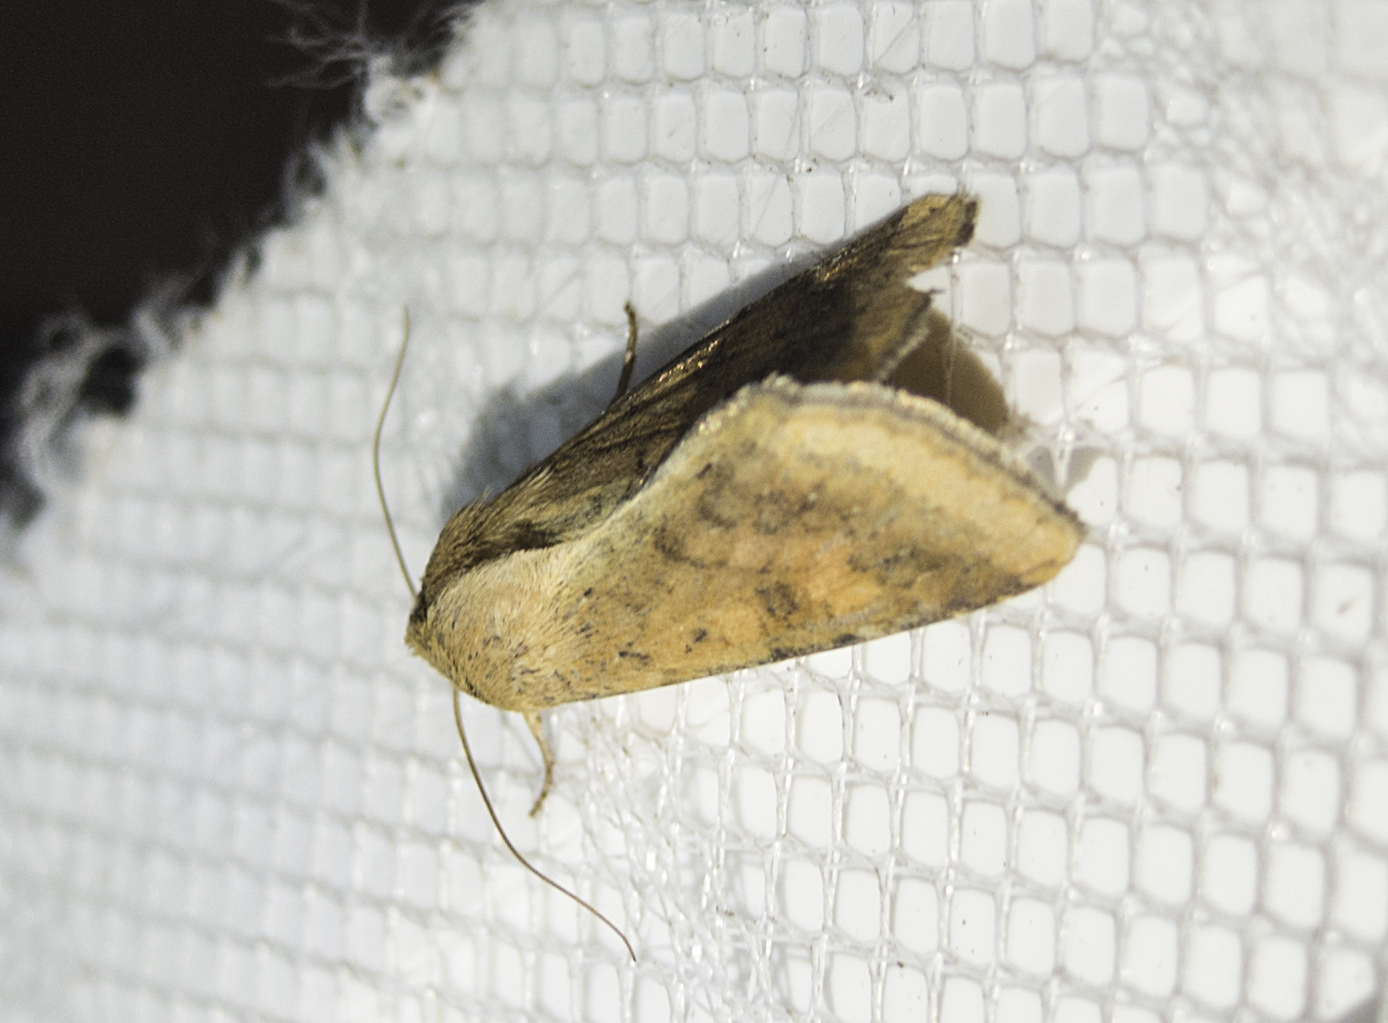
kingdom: Animalia
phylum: Arthropoda
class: Insecta
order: Lepidoptera
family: Noctuidae
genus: Helicoverpa
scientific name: Helicoverpa armigera
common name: Cotton bollworm
